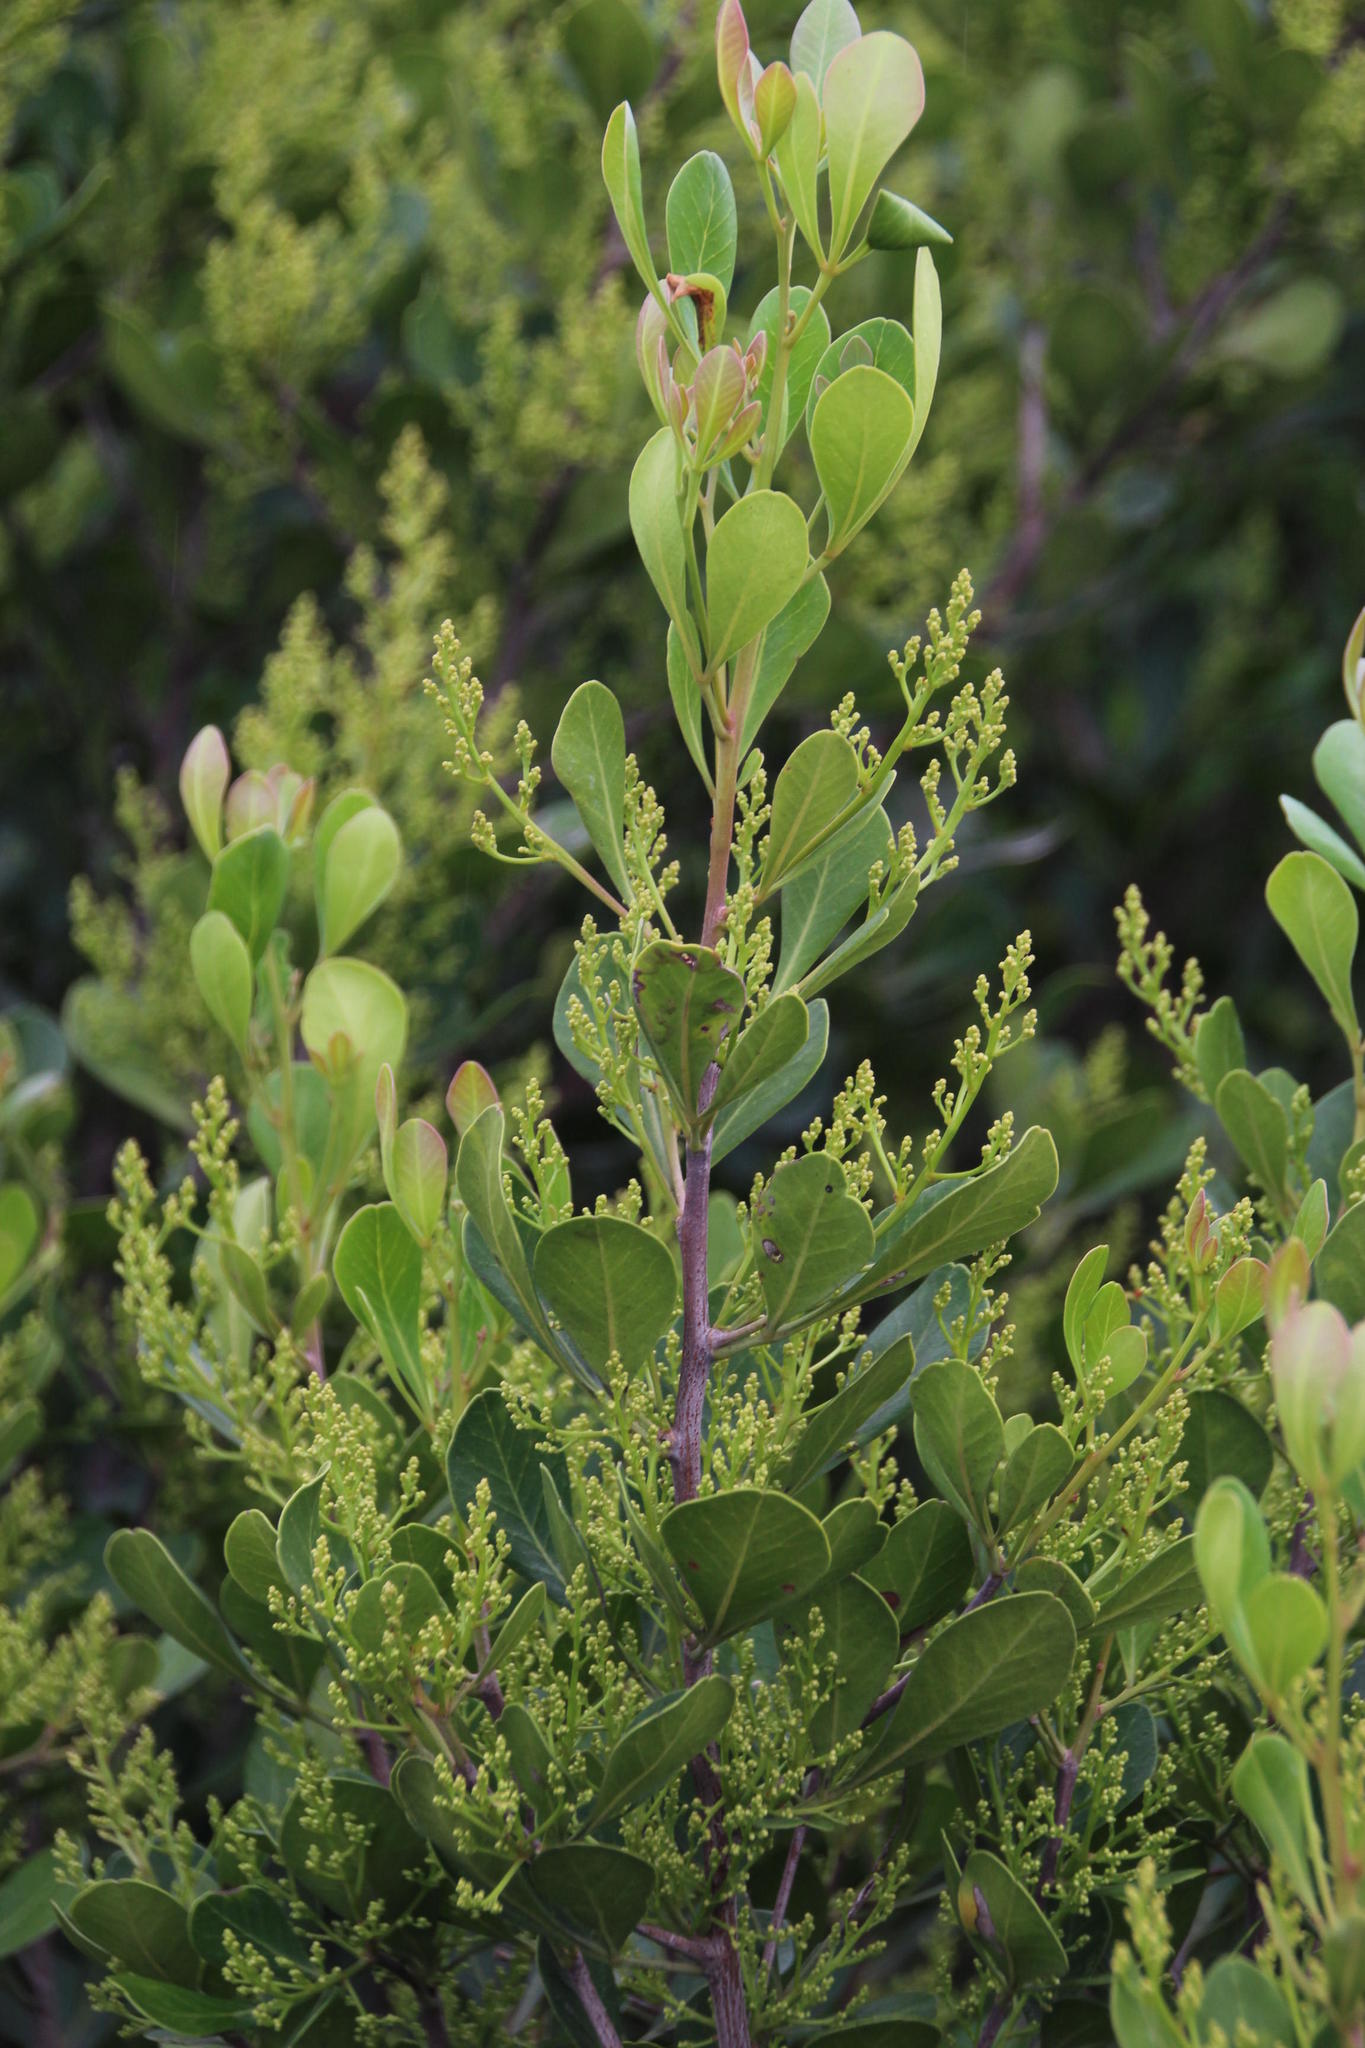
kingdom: Plantae
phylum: Tracheophyta
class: Magnoliopsida
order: Sapindales
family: Anacardiaceae
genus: Searsia
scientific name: Searsia lucida
